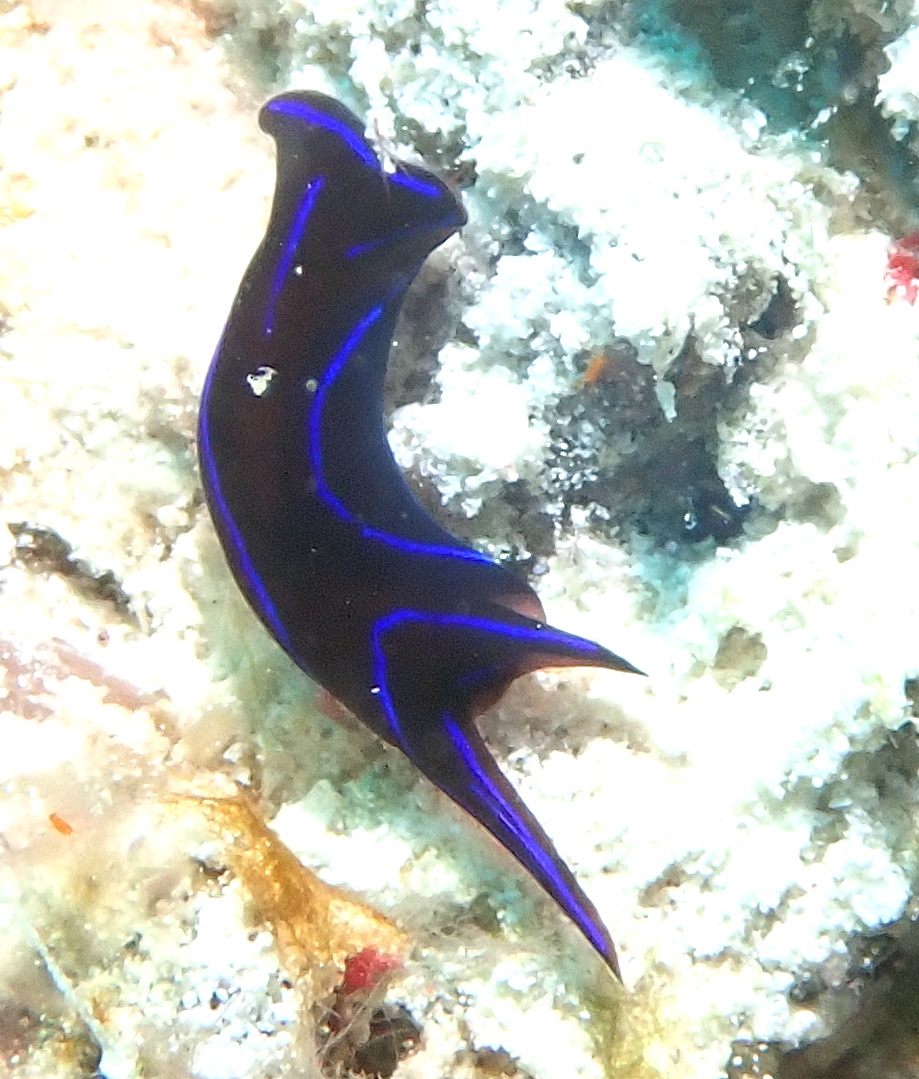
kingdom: Animalia
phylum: Mollusca
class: Gastropoda
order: Cephalaspidea
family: Aglajidae
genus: Chelidonura
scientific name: Chelidonura varians
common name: Blue velvet headshield slug
